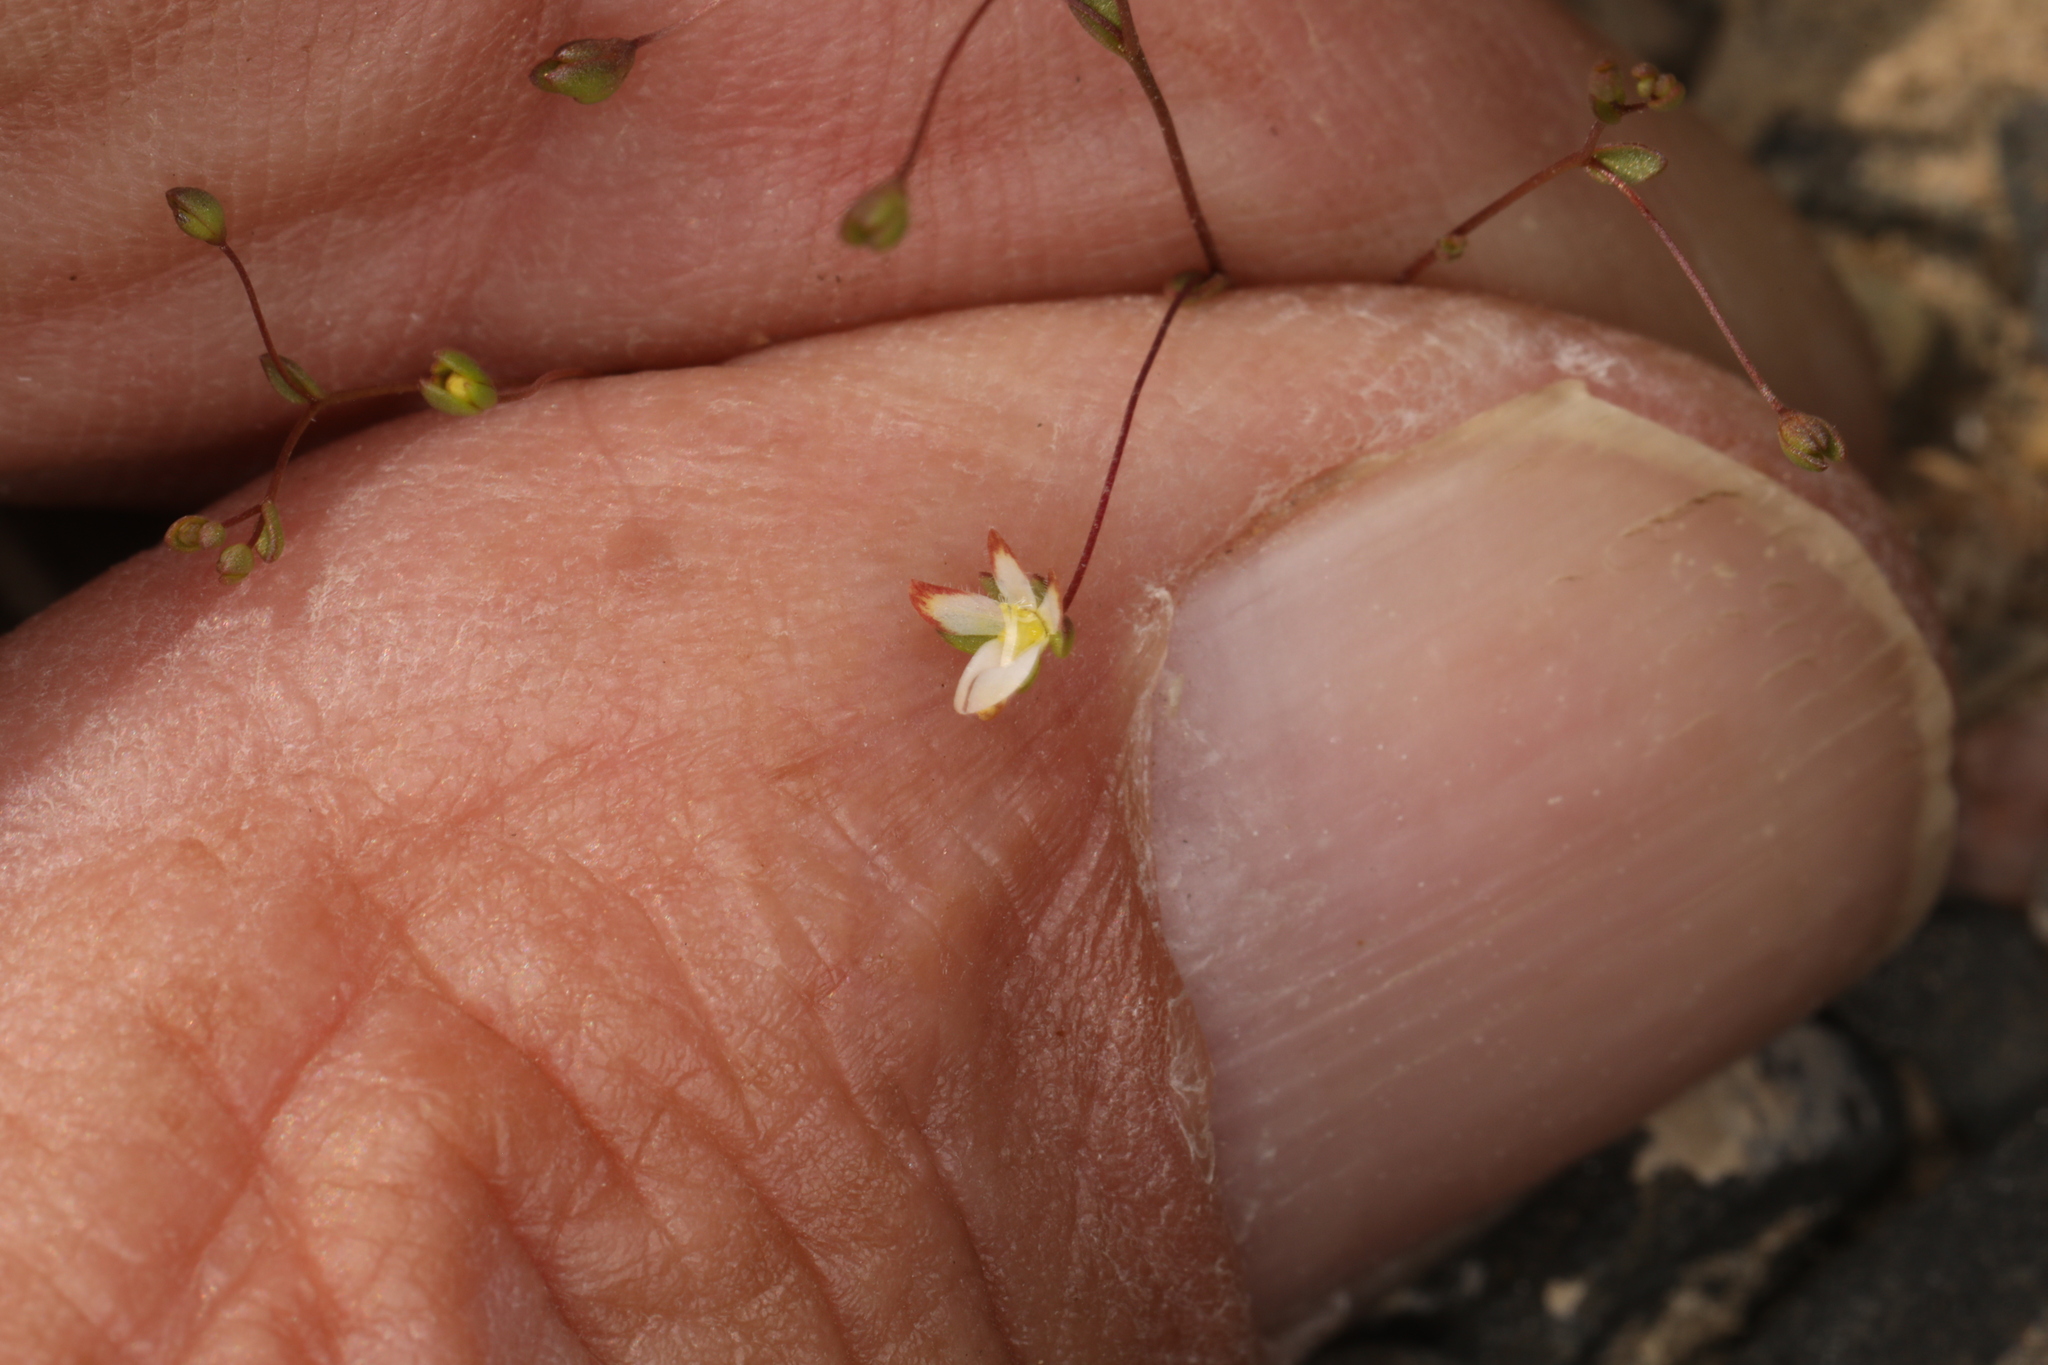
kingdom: Plantae
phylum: Tracheophyta
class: Magnoliopsida
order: Asterales
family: Campanulaceae
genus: Nemacladus
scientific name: Nemacladus morefieldii
